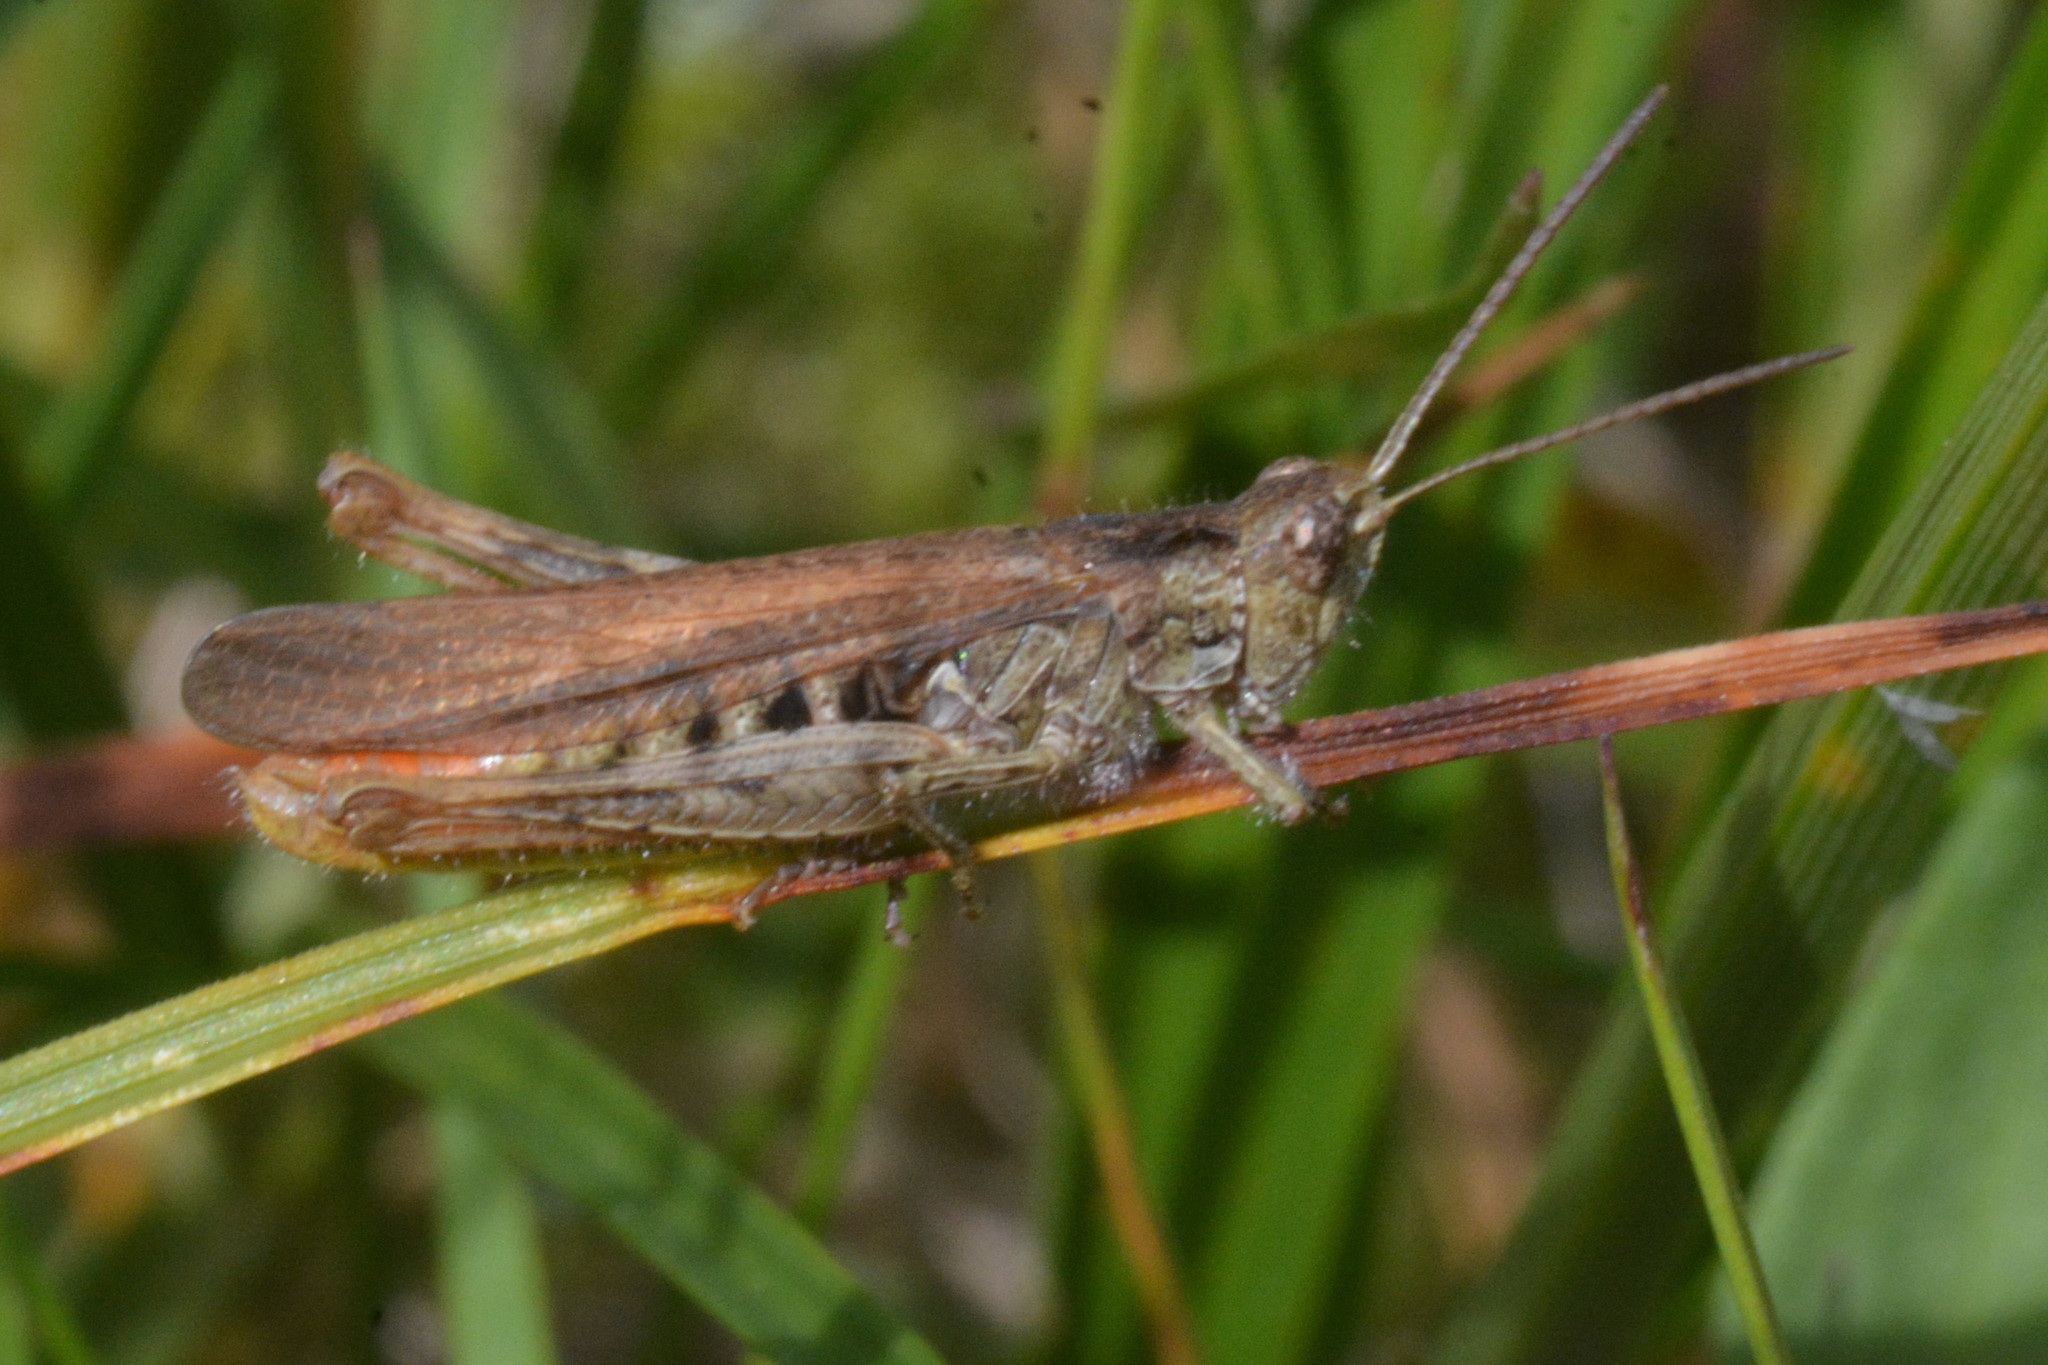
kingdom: Animalia
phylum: Arthropoda
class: Insecta
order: Orthoptera
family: Acrididae
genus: Chorthippus
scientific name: Chorthippus brunneus
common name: Field grasshopper
